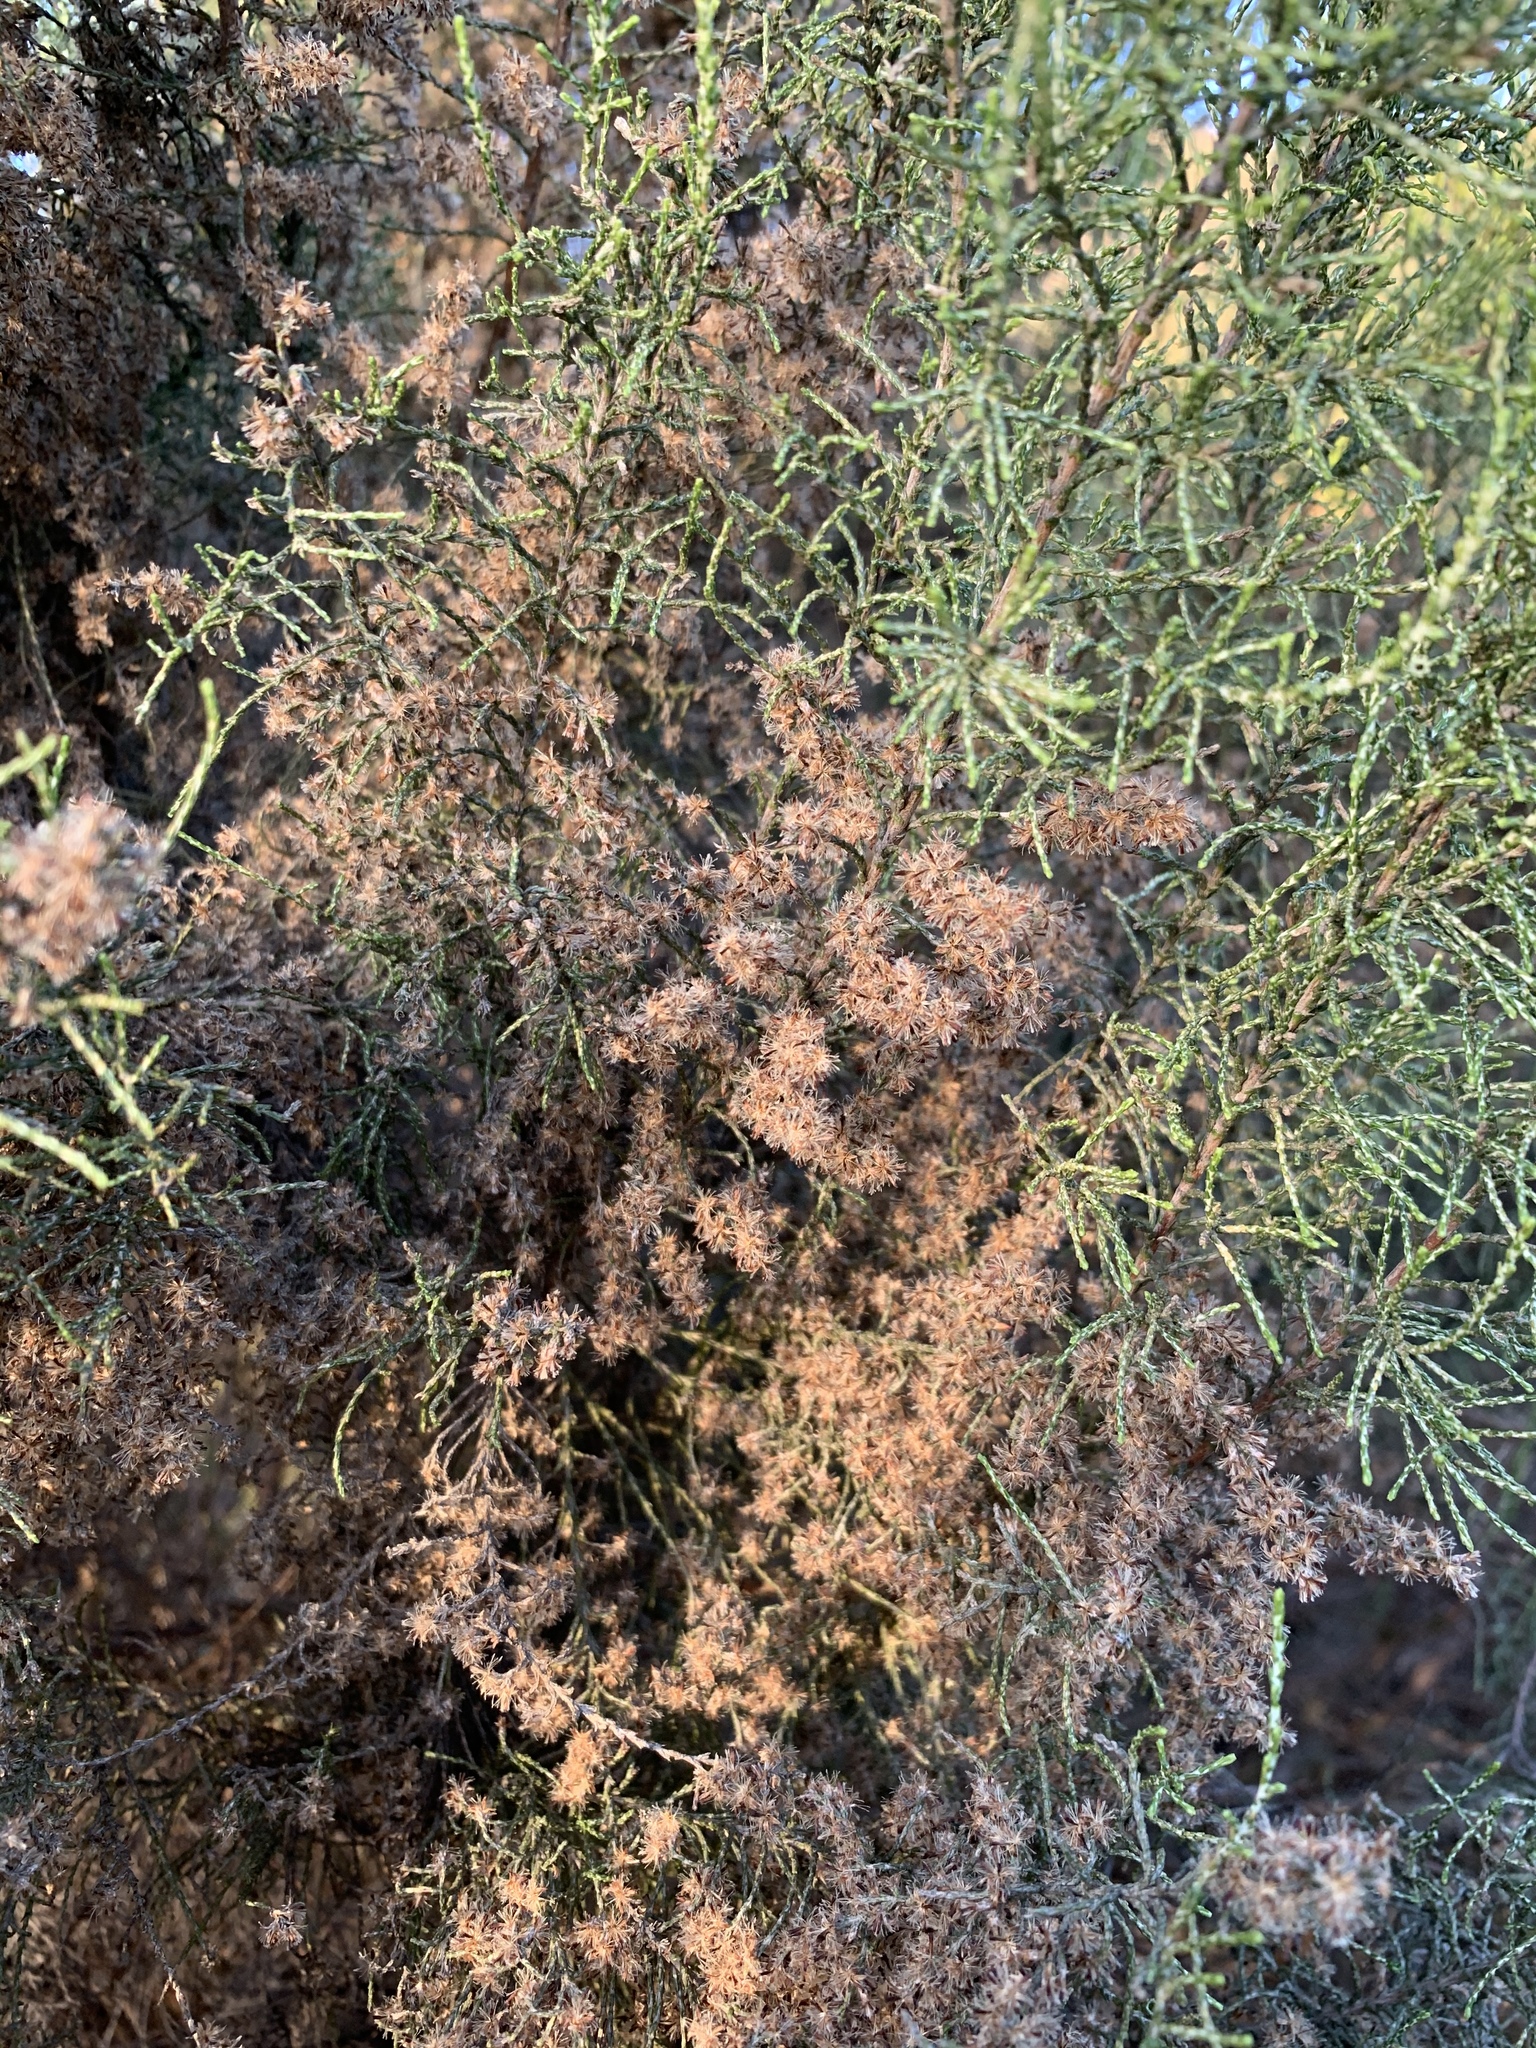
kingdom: Plantae
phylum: Tracheophyta
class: Magnoliopsida
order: Asterales
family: Asteraceae
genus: Dicerothamnus
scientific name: Dicerothamnus rhinocerotis
